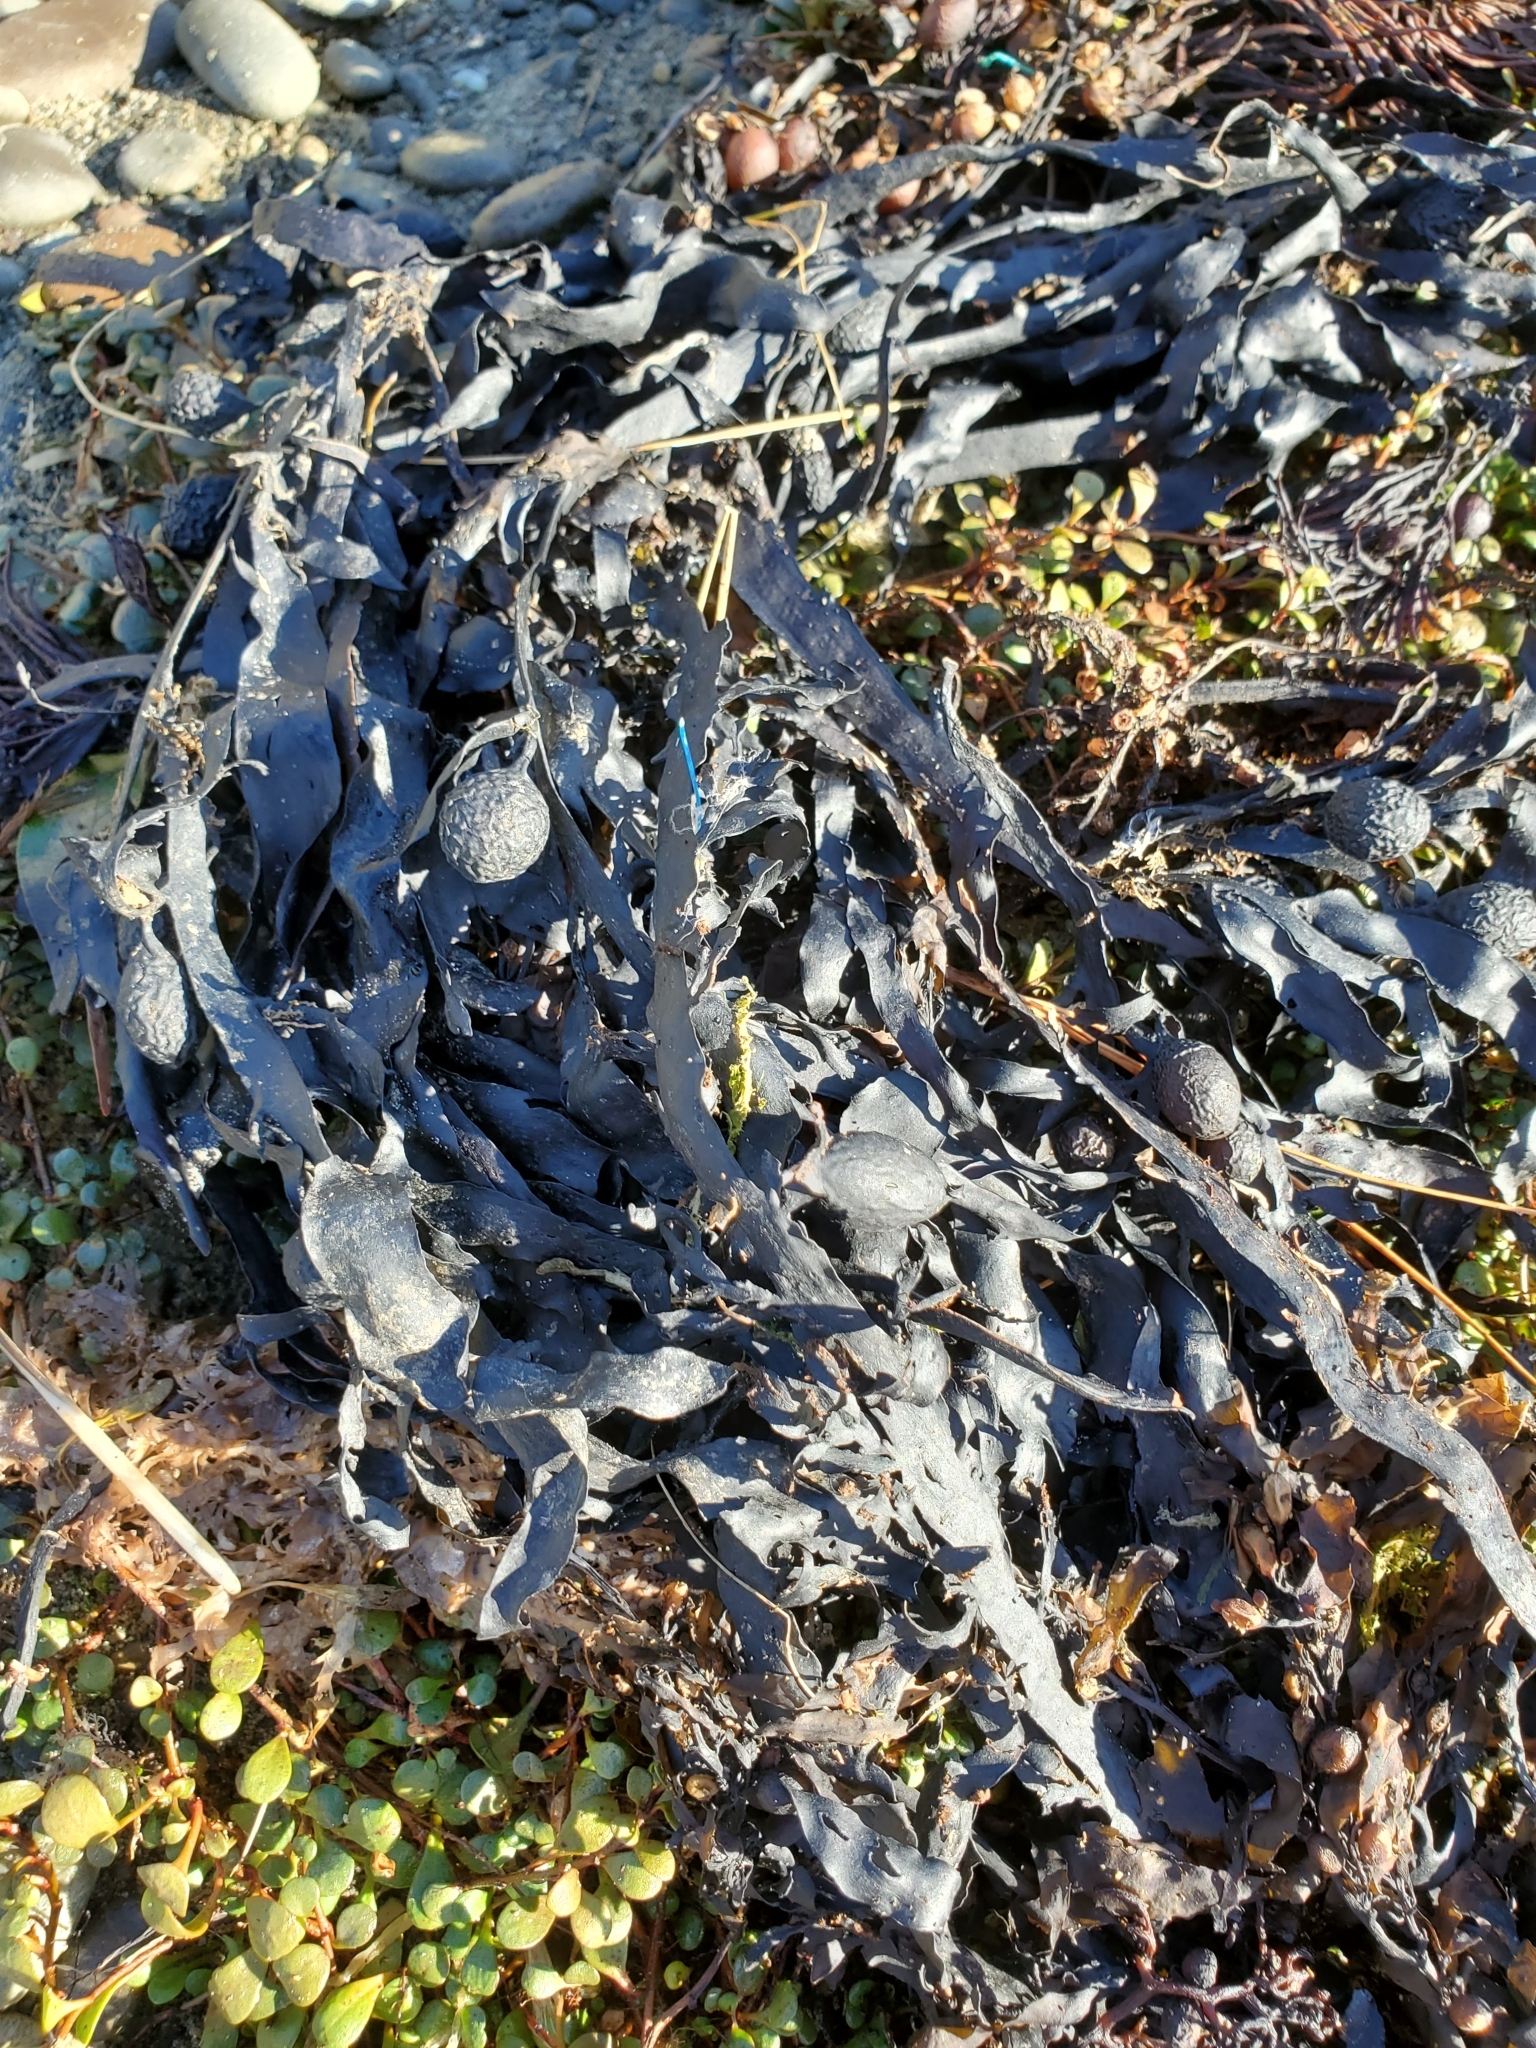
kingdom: Chromista
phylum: Ochrophyta
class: Phaeophyceae
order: Fucales
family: Sargassaceae
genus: Carpophyllum
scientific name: Carpophyllum flexuosum
